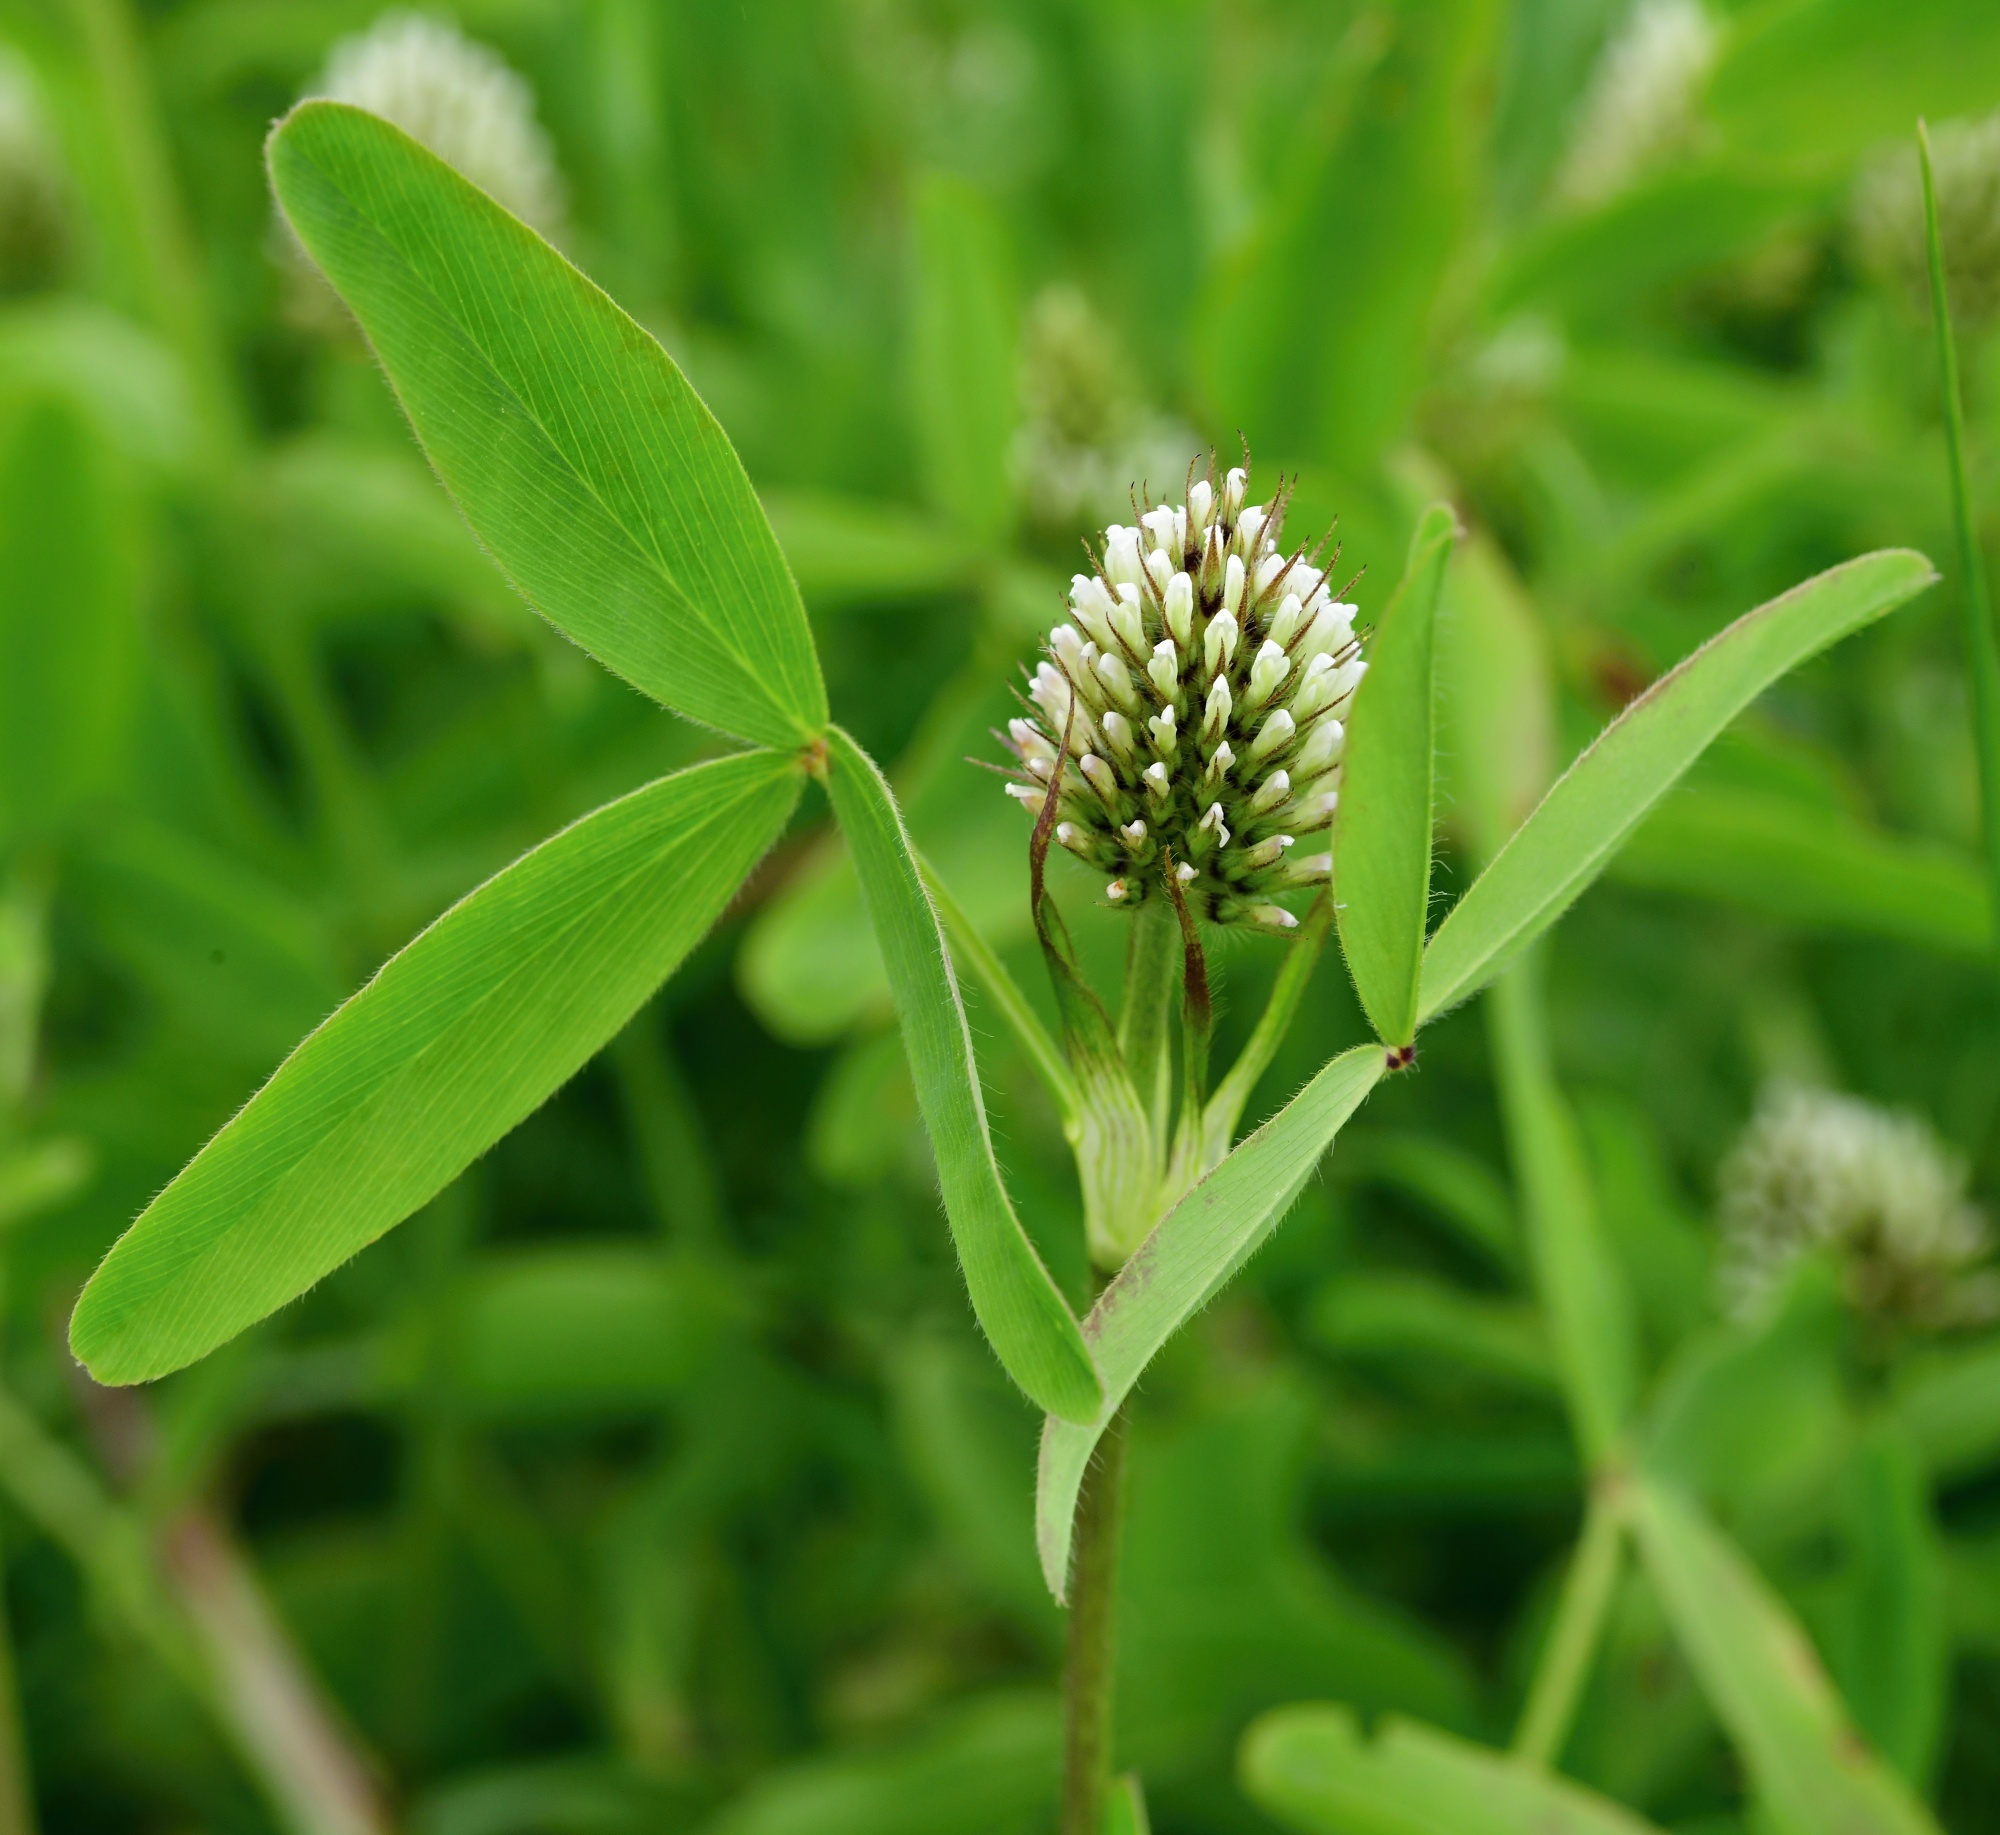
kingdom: Plantae
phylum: Tracheophyta
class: Magnoliopsida
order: Fabales
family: Fabaceae
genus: Trifolium
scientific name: Trifolium alexandrinum
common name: Egyptian clover
